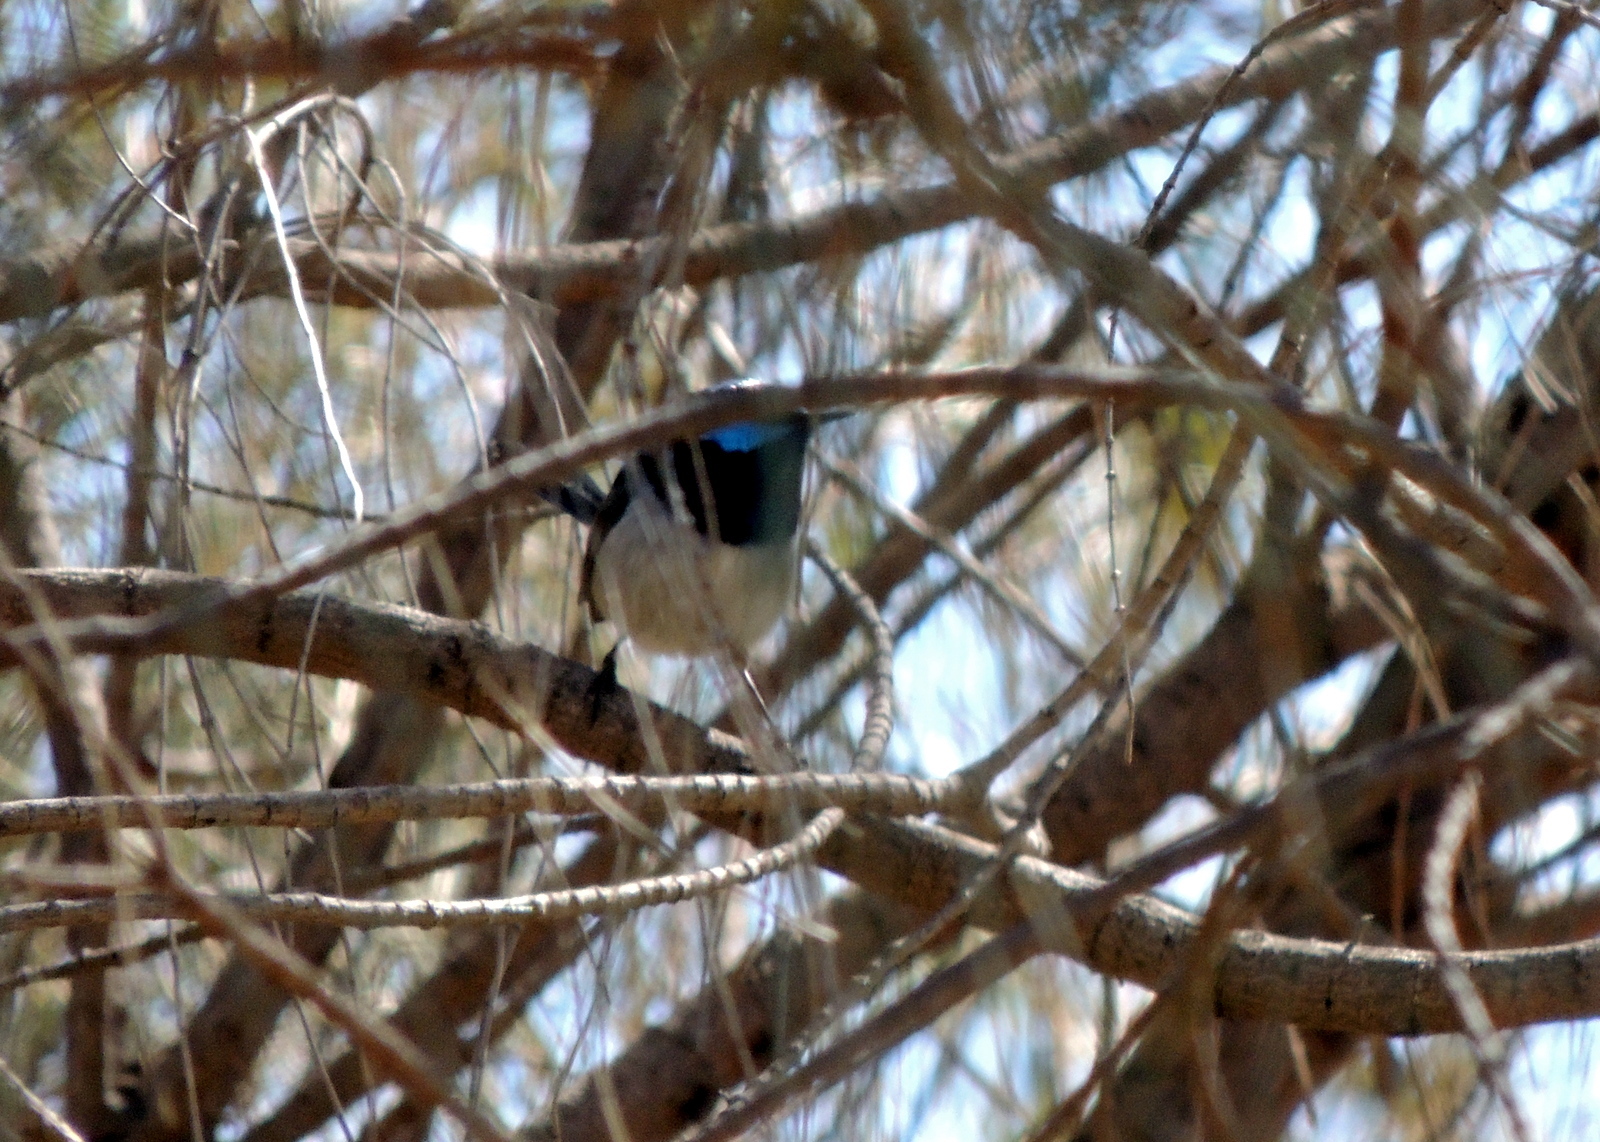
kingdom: Animalia
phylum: Chordata
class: Aves
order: Passeriformes
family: Maluridae
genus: Malurus
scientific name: Malurus cyaneus
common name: Superb fairywren
